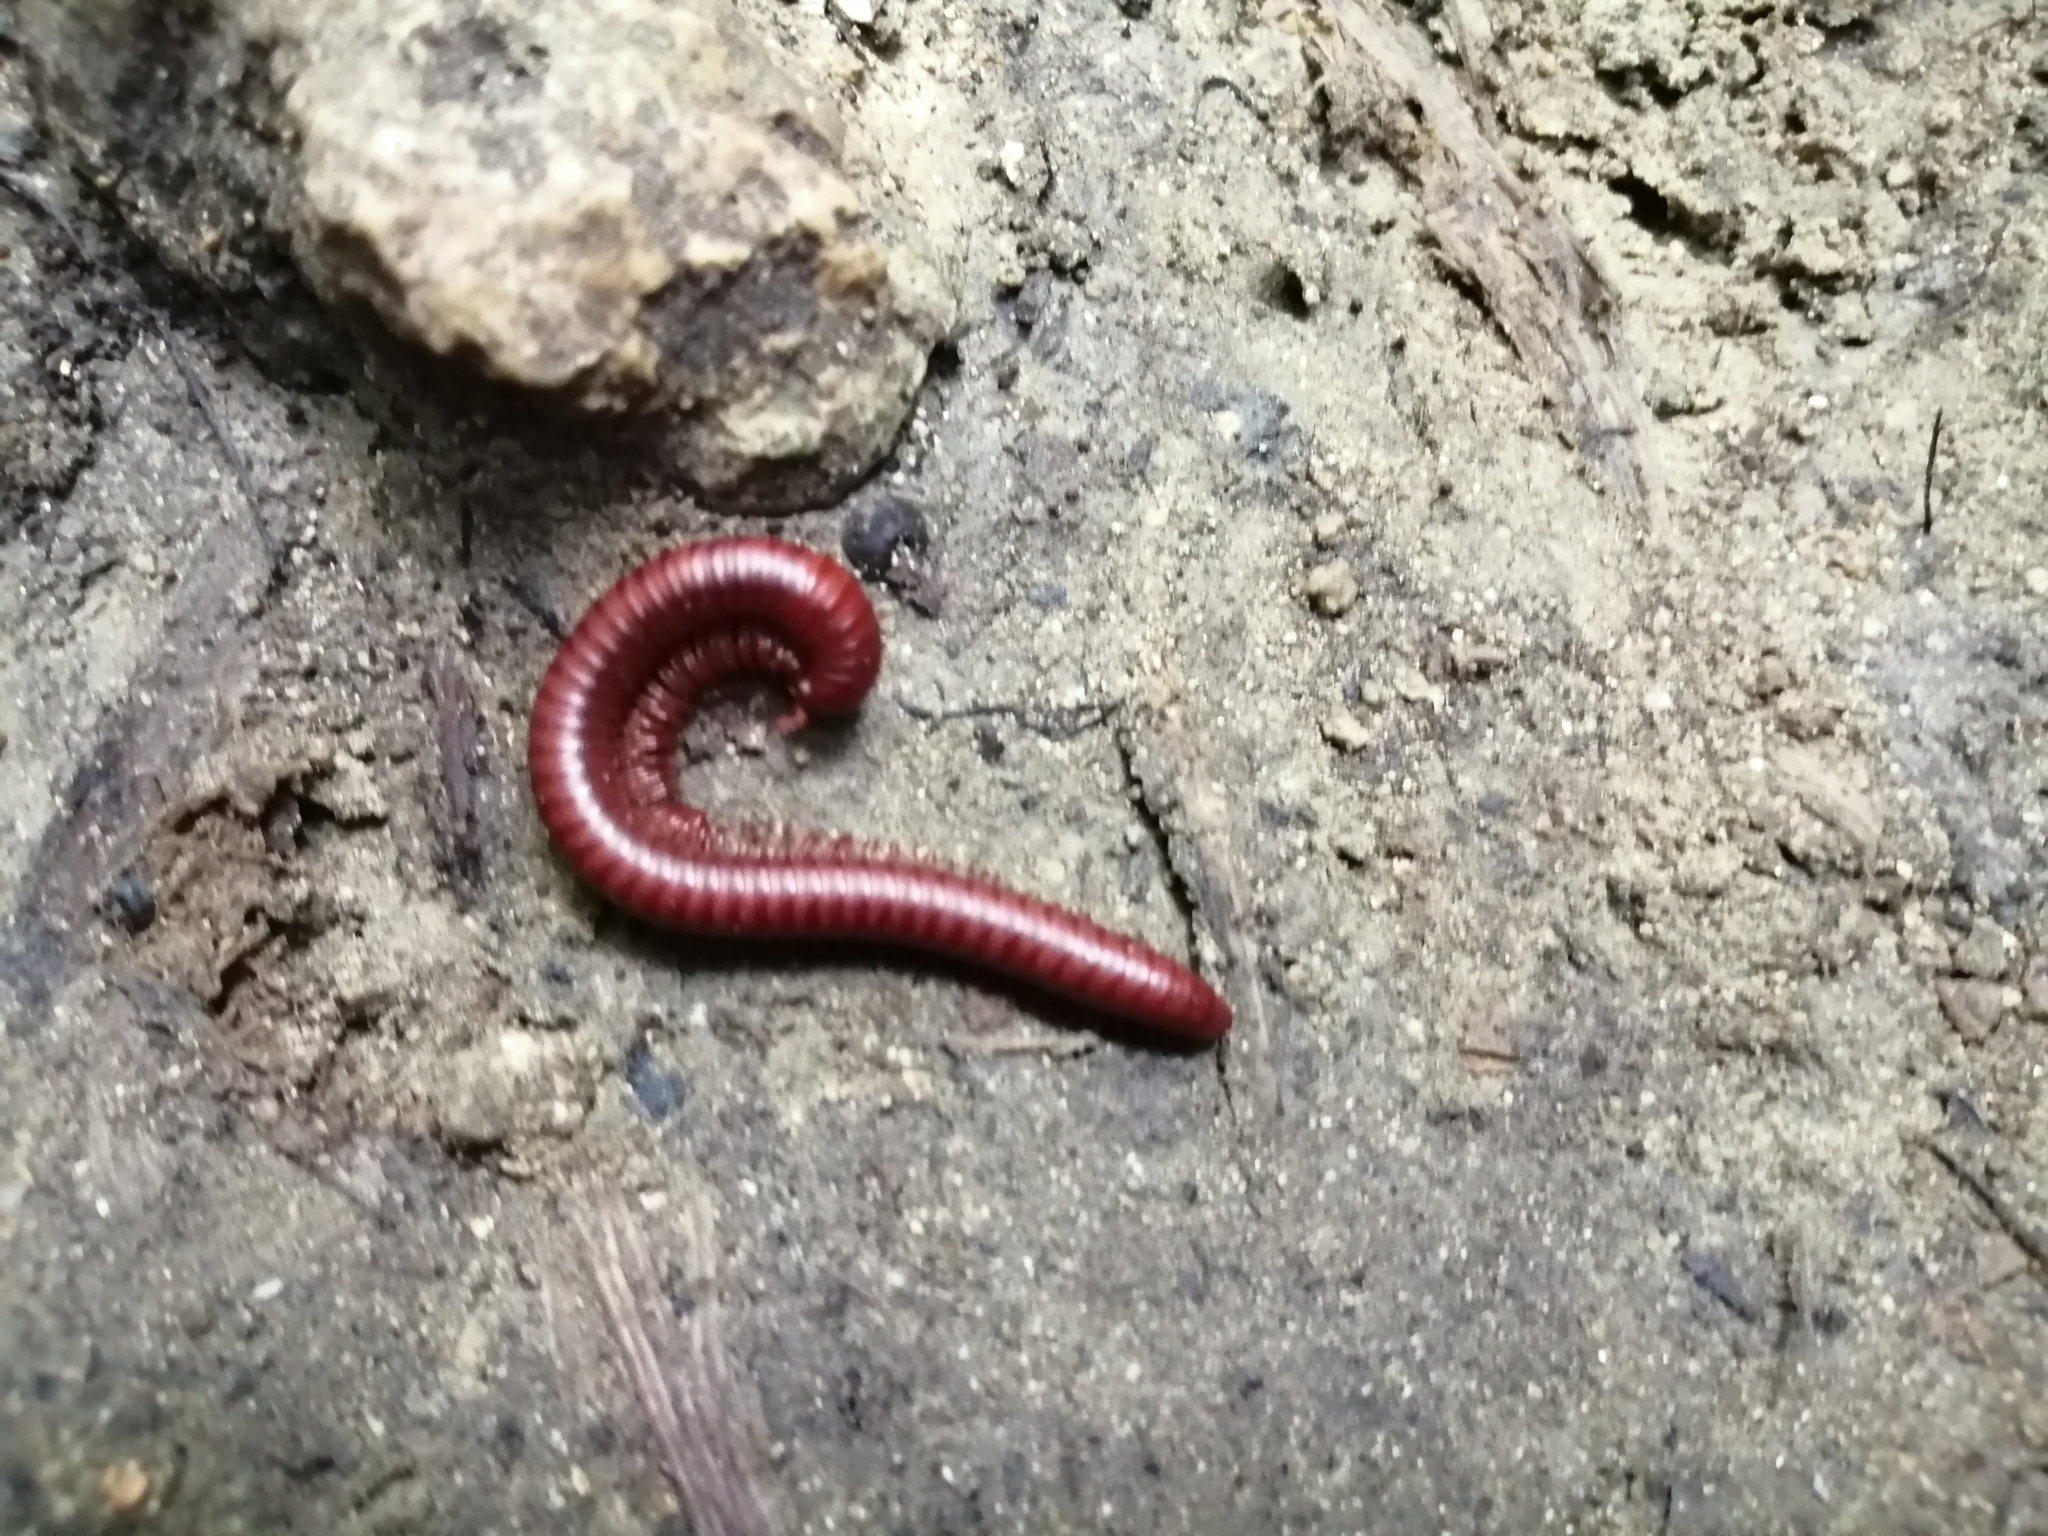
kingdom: Animalia
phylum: Arthropoda
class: Diplopoda
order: Spirobolida
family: Pachybolidae
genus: Trigoniulus
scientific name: Trigoniulus corallinus
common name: Millipede
